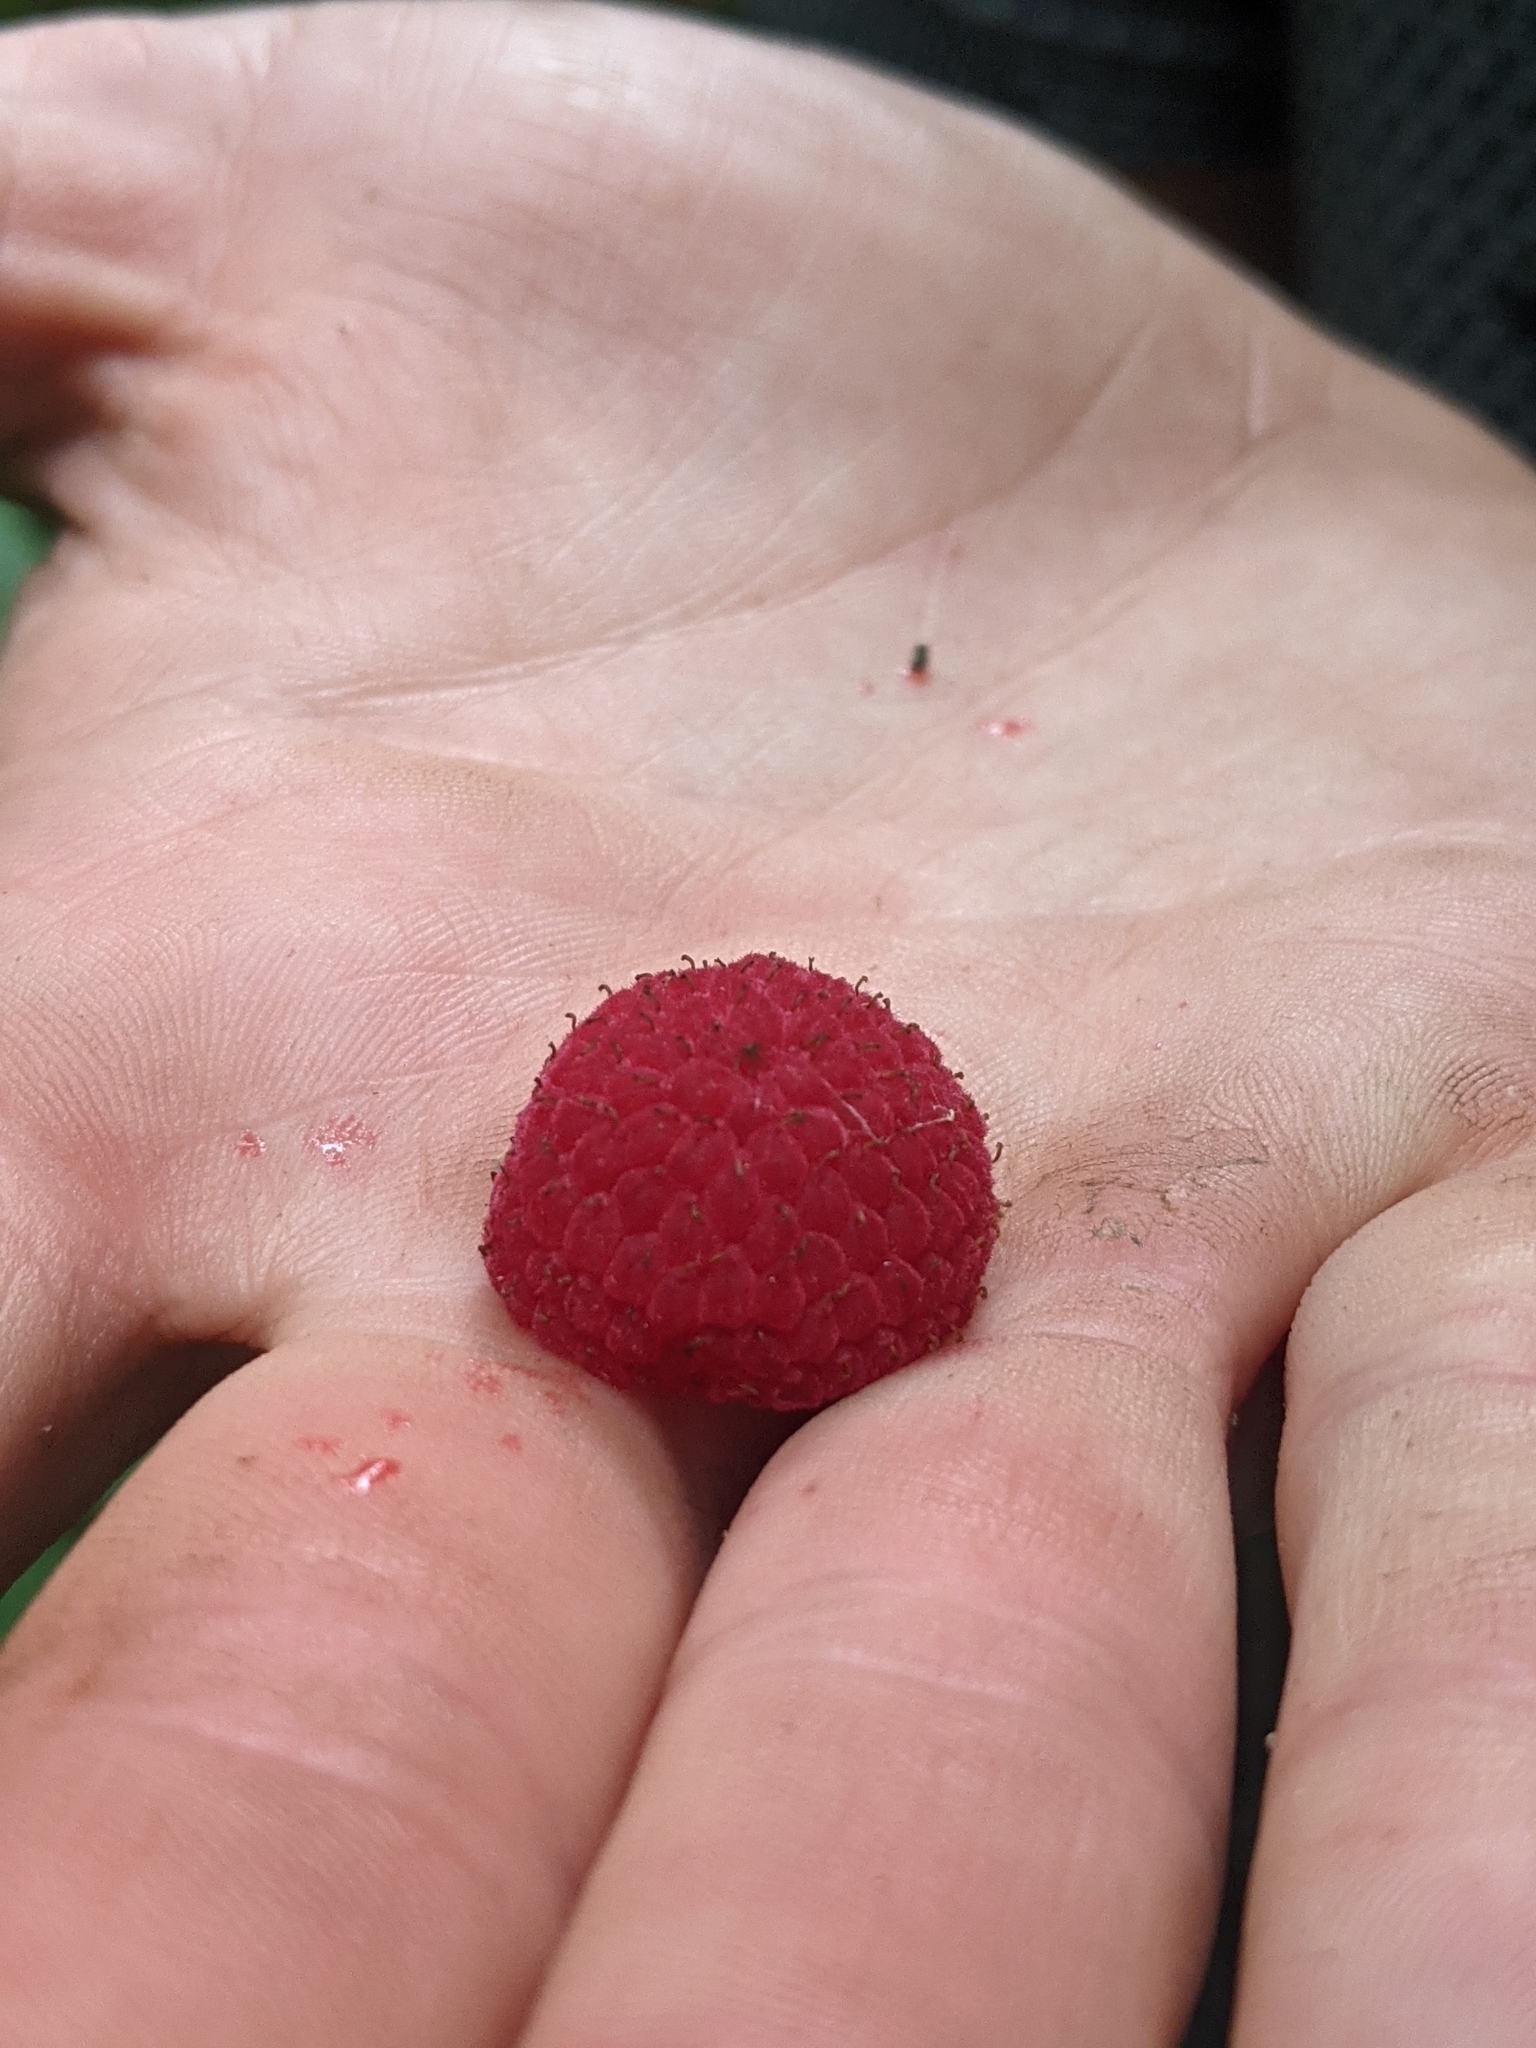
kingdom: Plantae
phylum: Tracheophyta
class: Magnoliopsida
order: Rosales
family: Rosaceae
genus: Rubus
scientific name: Rubus odoratus
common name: Purple-flowered raspberry
